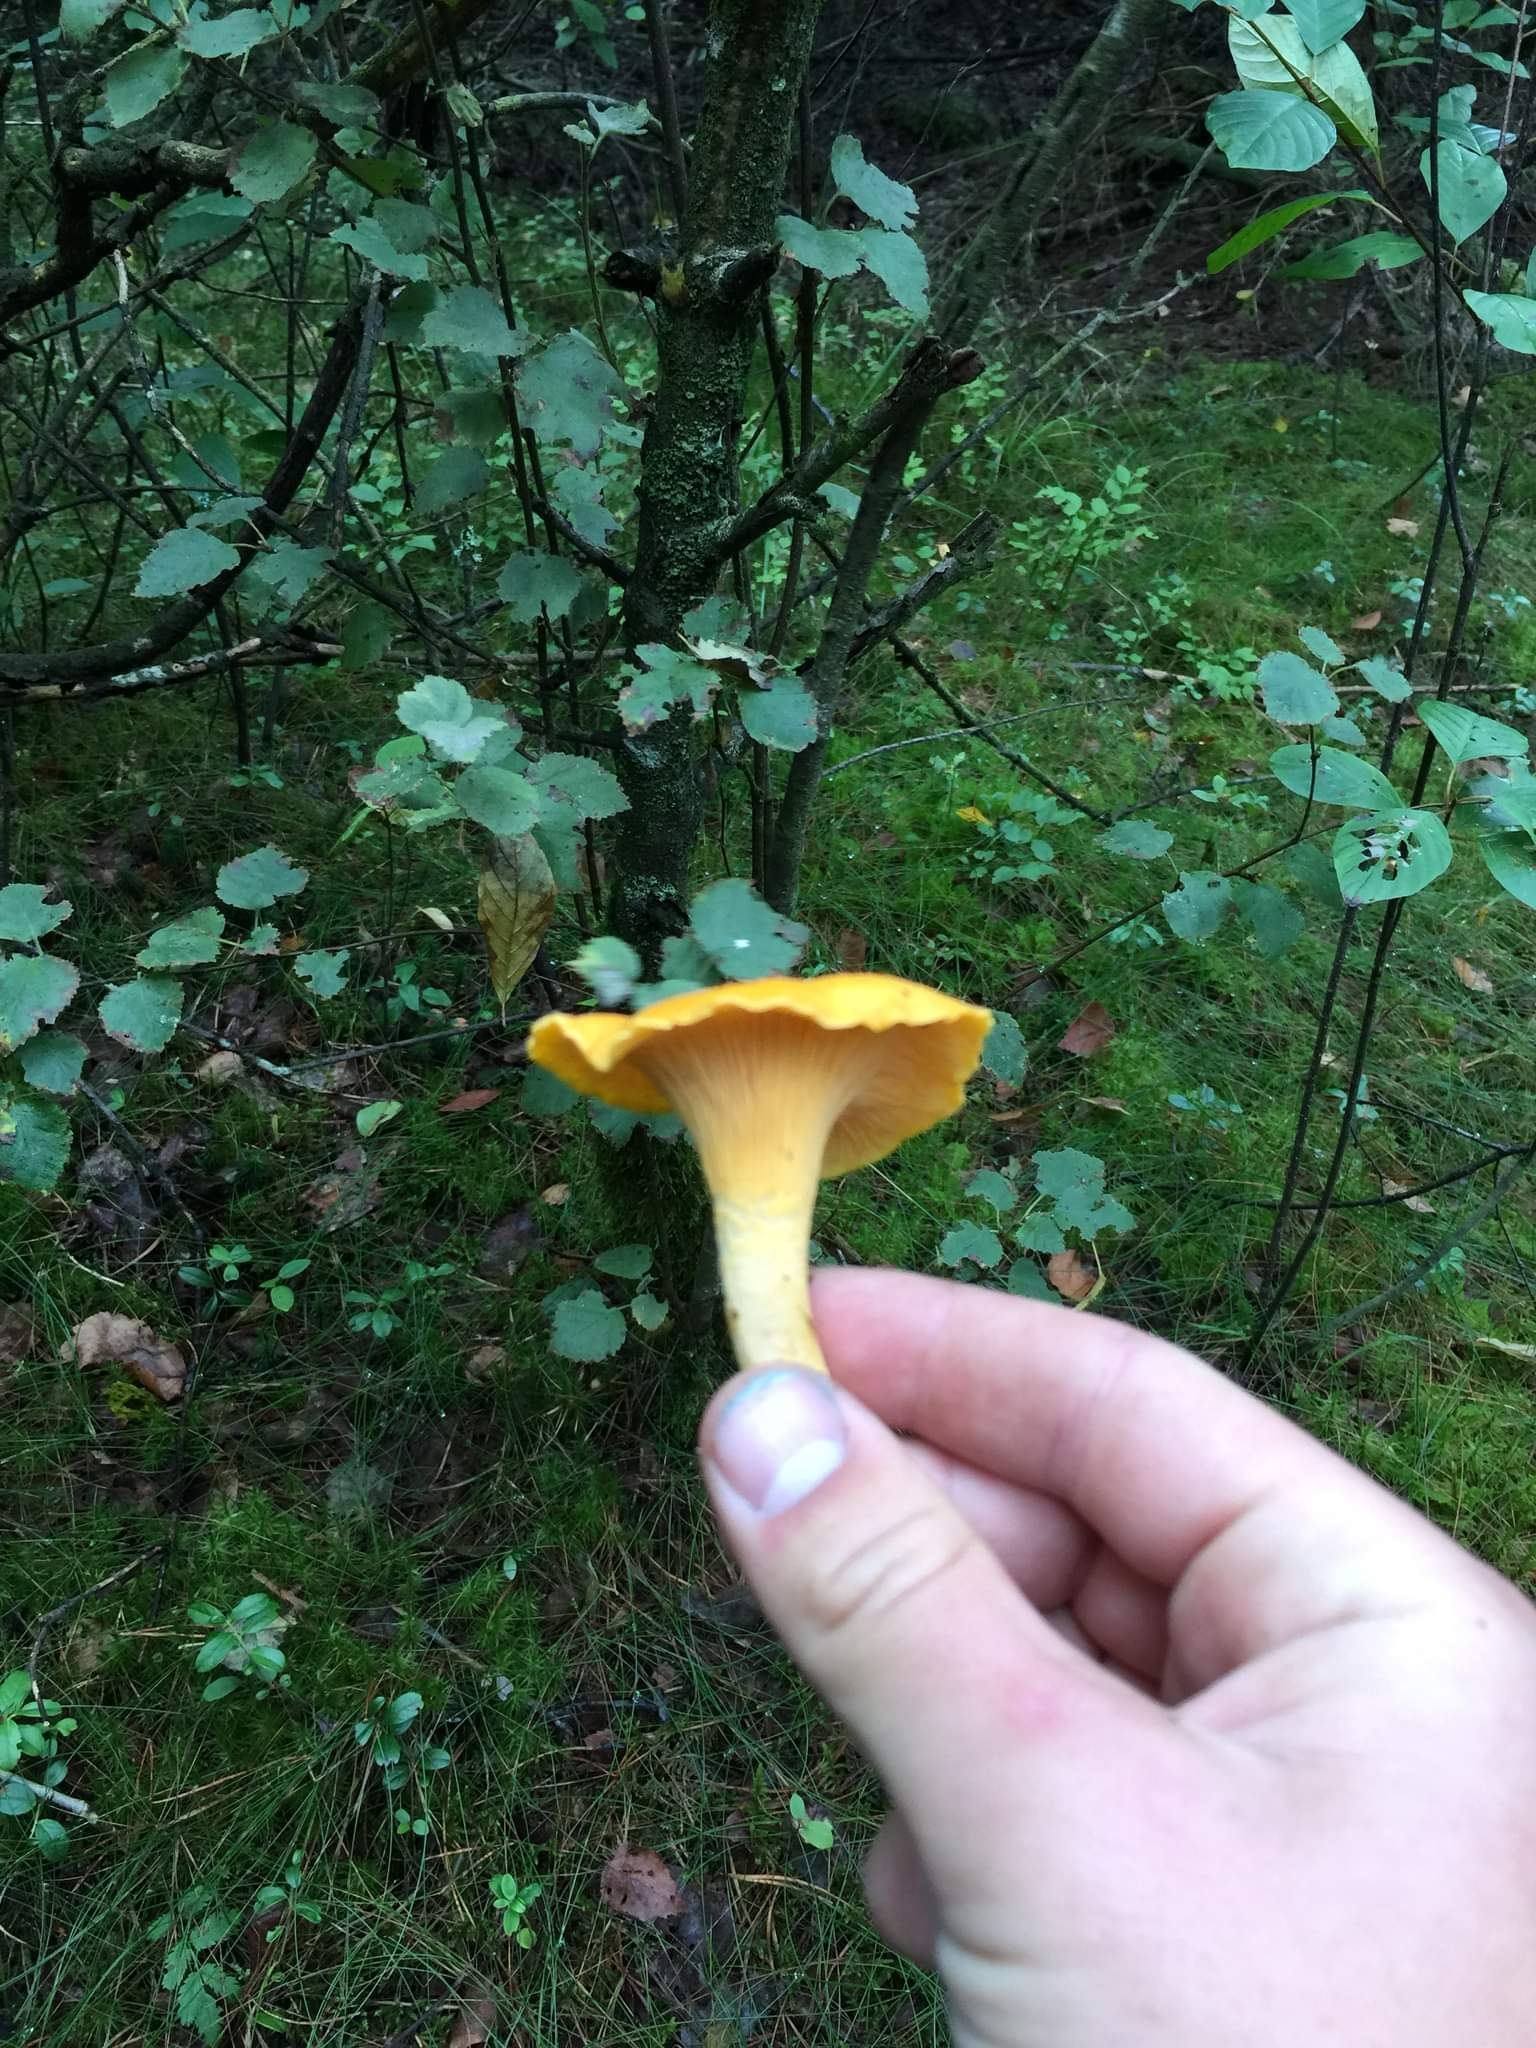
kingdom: Fungi
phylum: Basidiomycota
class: Agaricomycetes
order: Cantharellales
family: Hydnaceae
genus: Cantharellus
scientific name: Cantharellus cibarius
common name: Chanterelle
